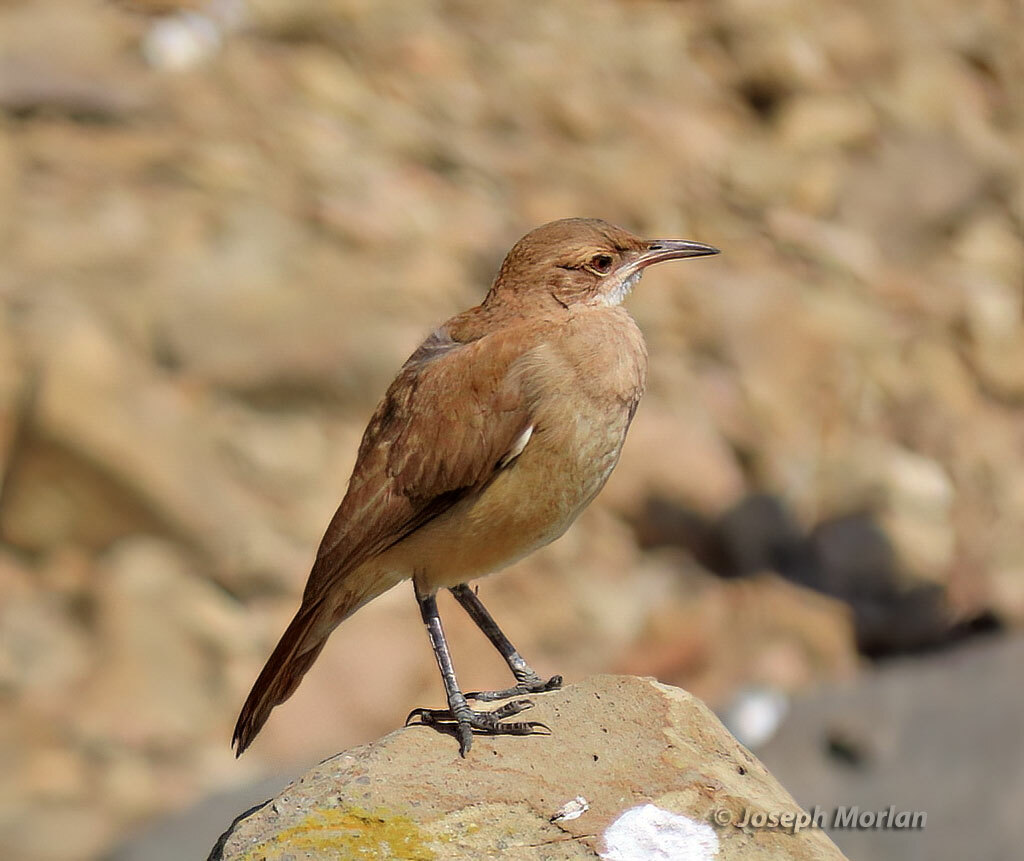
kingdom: Animalia
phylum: Chordata
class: Aves
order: Passeriformes
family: Furnariidae
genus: Furnarius
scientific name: Furnarius rufus
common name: Rufous hornero
